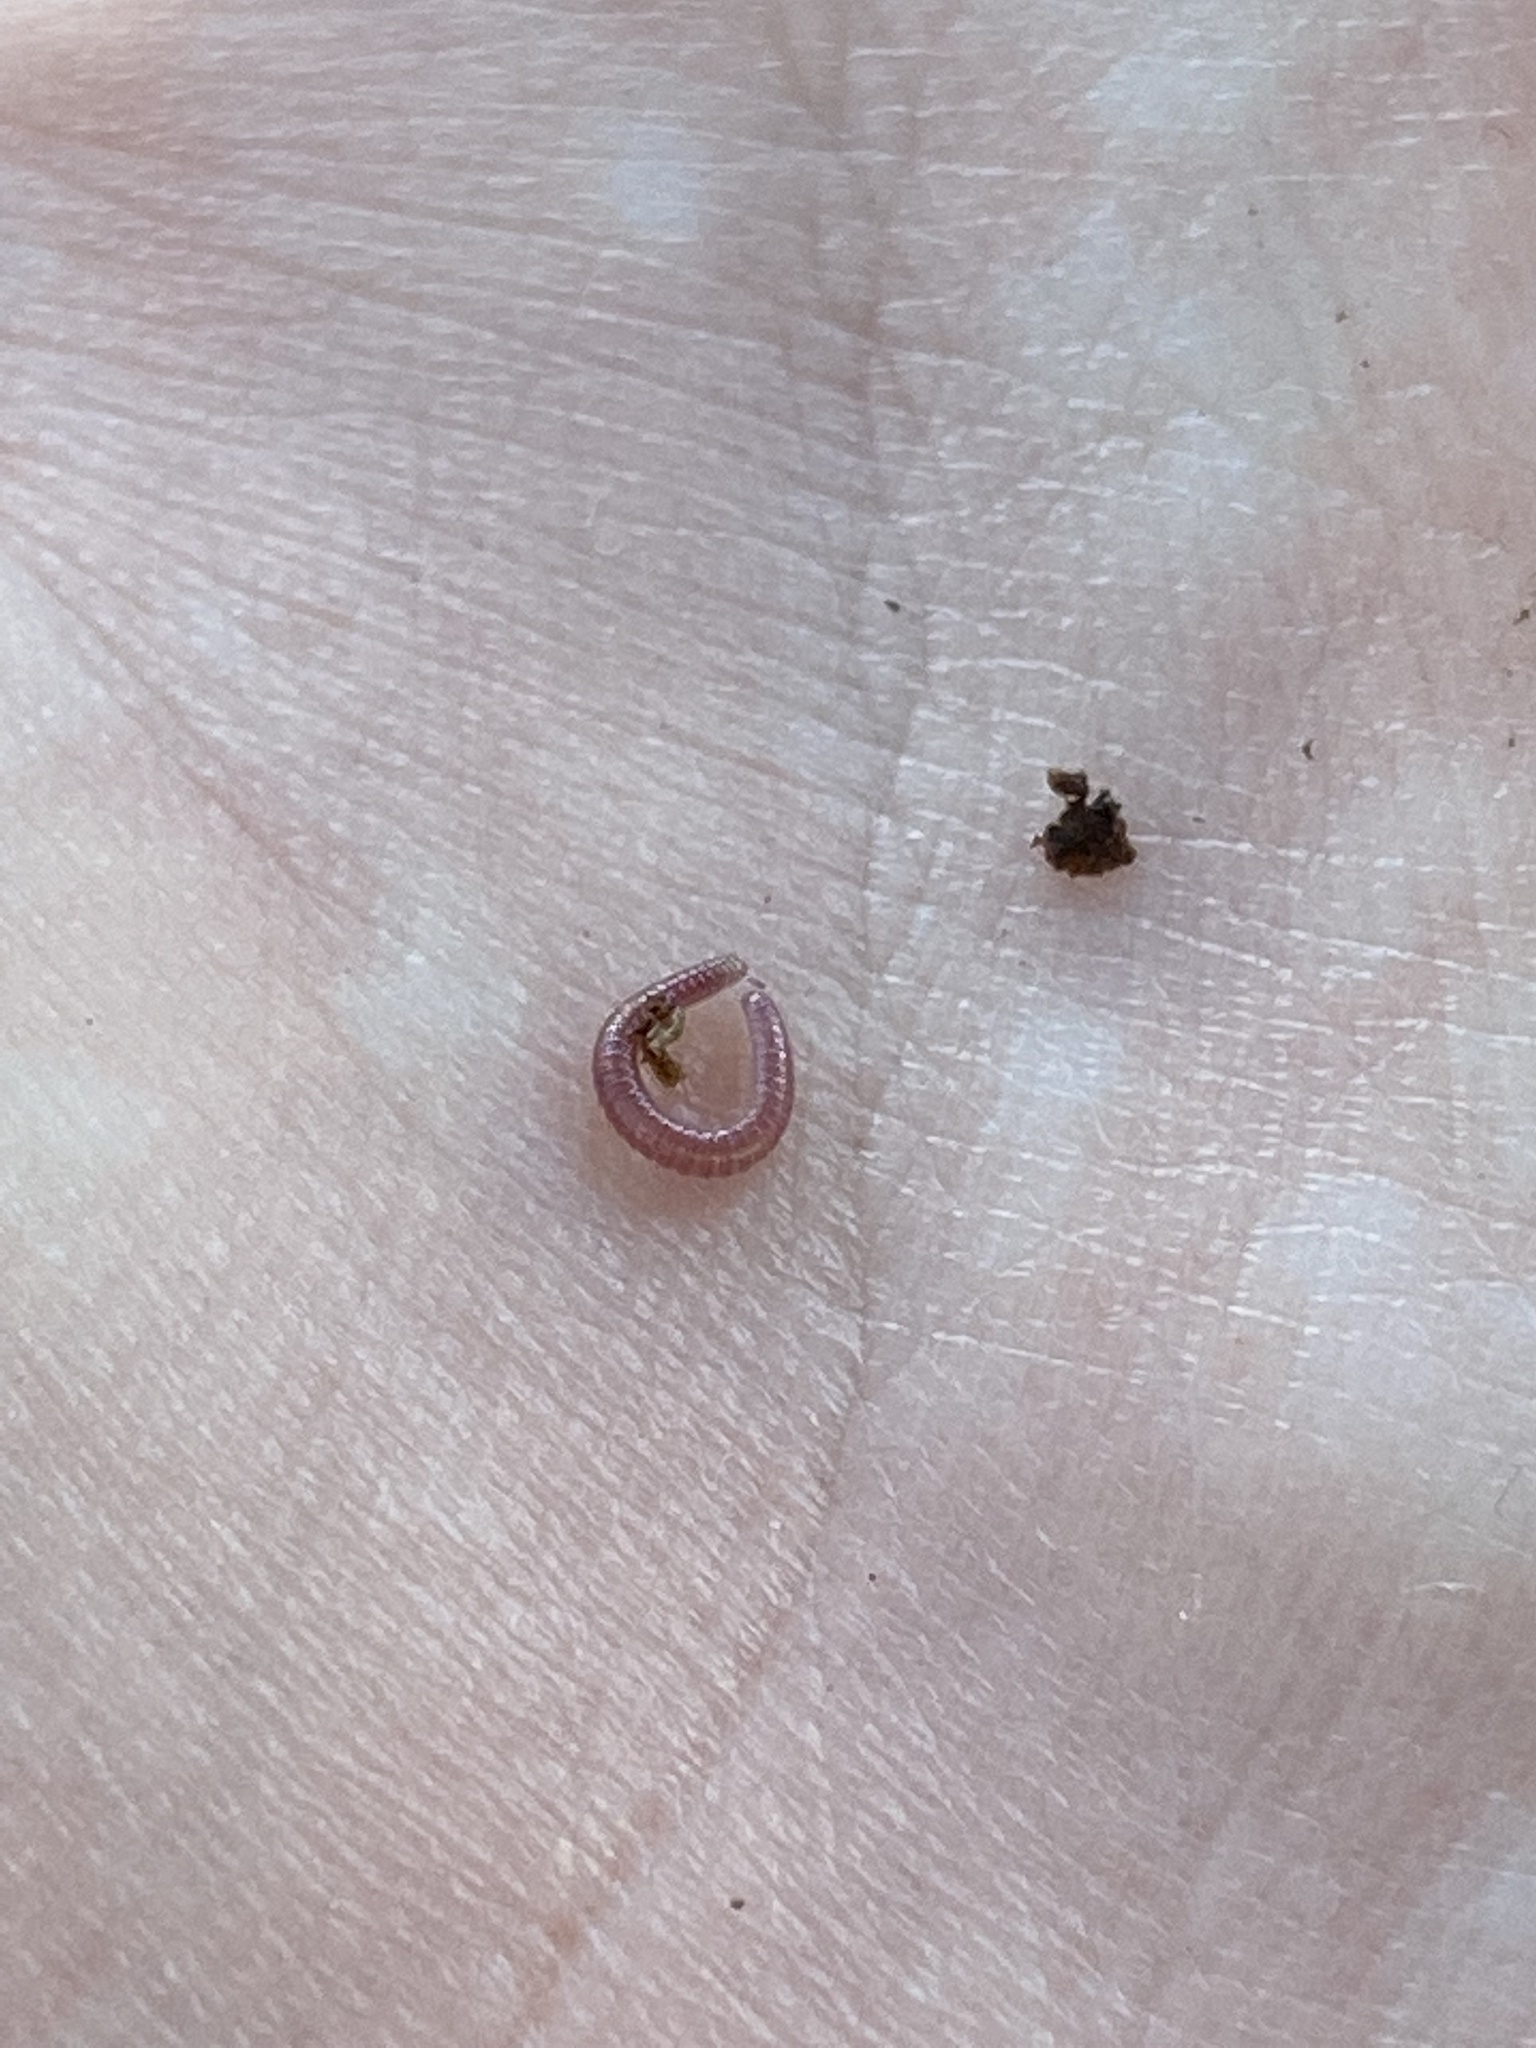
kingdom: Animalia
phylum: Arthropoda
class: Diplopoda
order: Polyzoniida
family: Siphonotidae
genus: Rhinotus
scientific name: Rhinotus purpureus
